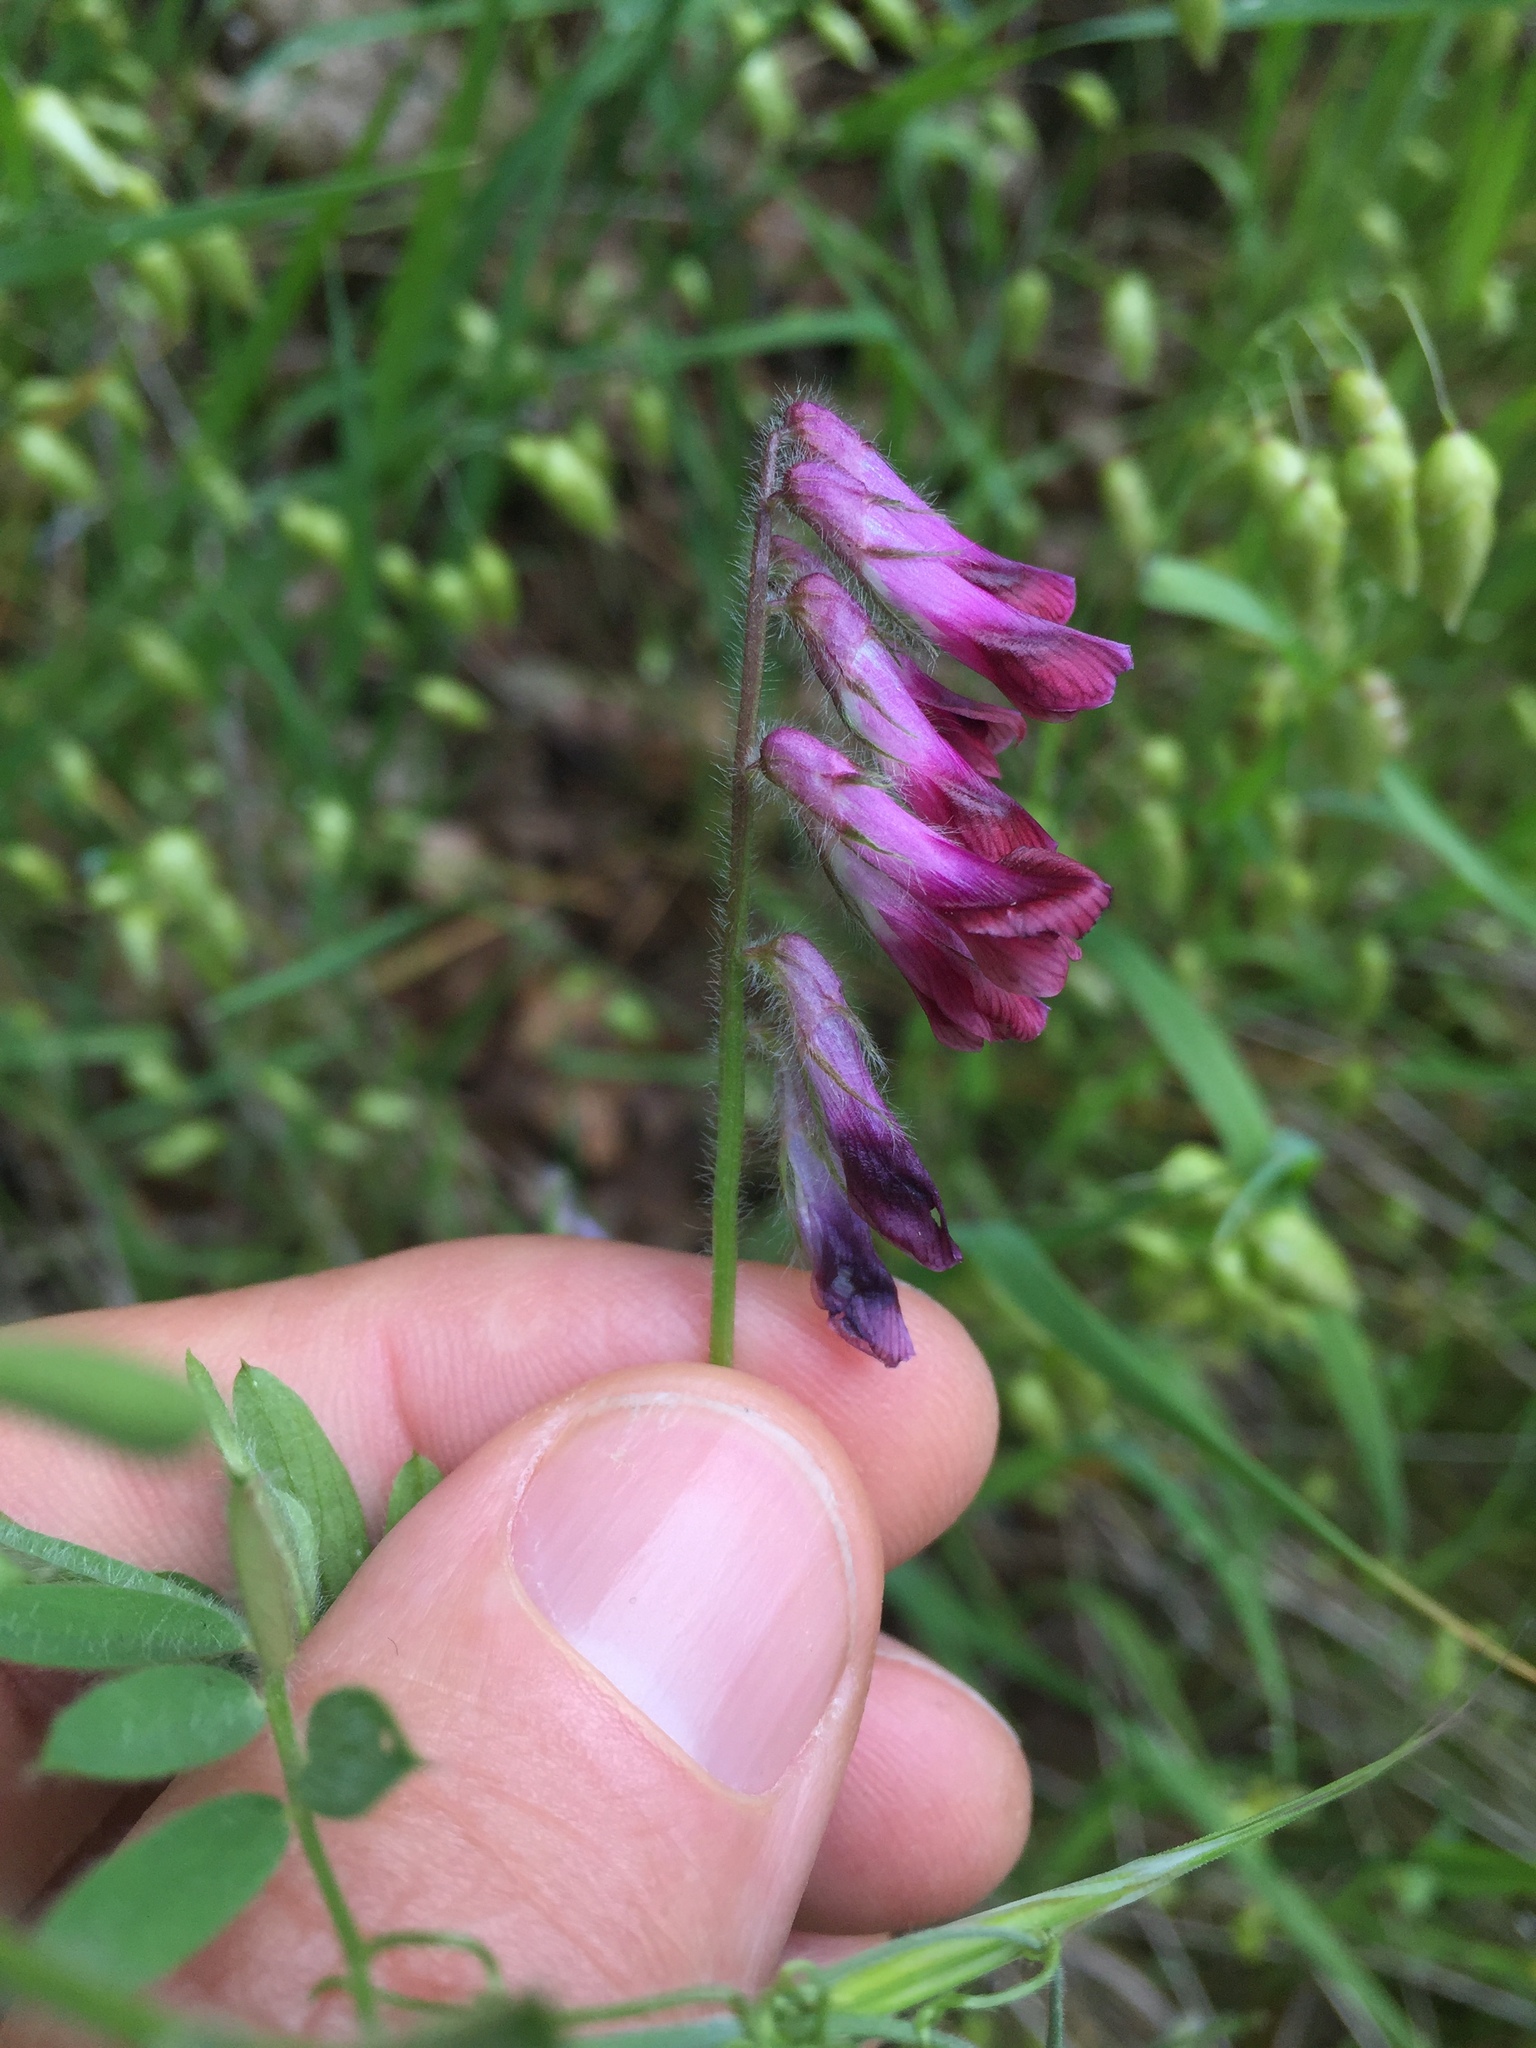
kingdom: Plantae
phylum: Tracheophyta
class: Magnoliopsida
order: Fabales
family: Fabaceae
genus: Vicia
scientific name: Vicia villosa
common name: Fodder vetch
